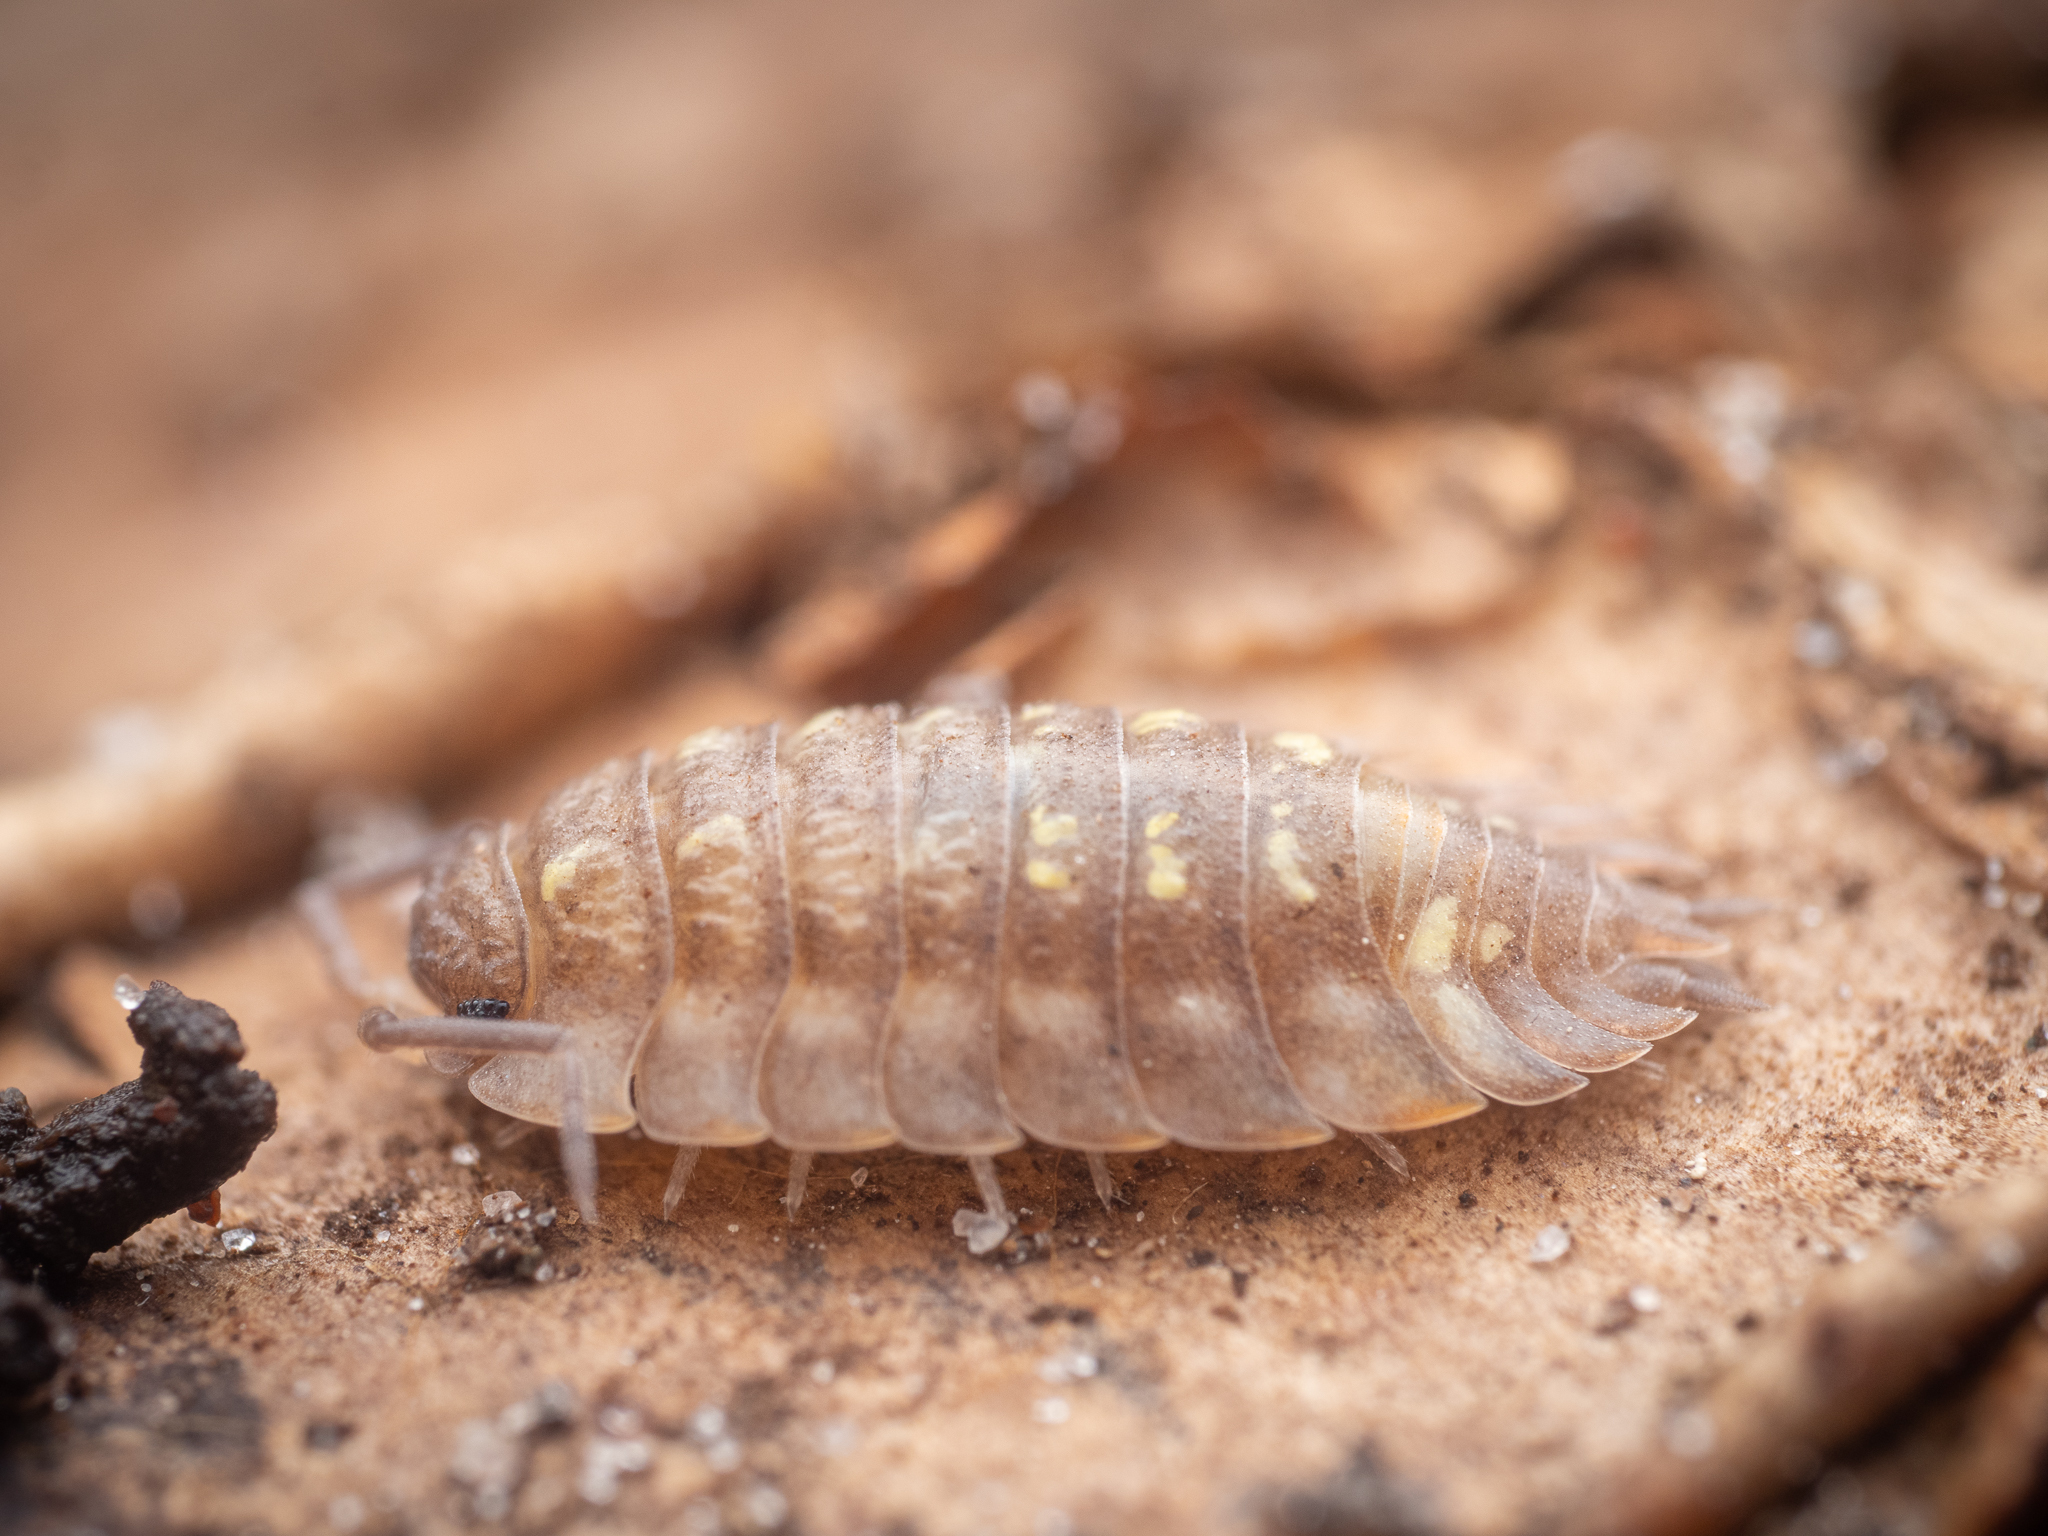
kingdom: Animalia
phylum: Arthropoda
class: Malacostraca
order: Isopoda
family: Oniscidae
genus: Oniscus
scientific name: Oniscus asellus
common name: Common shiny woodlouse
